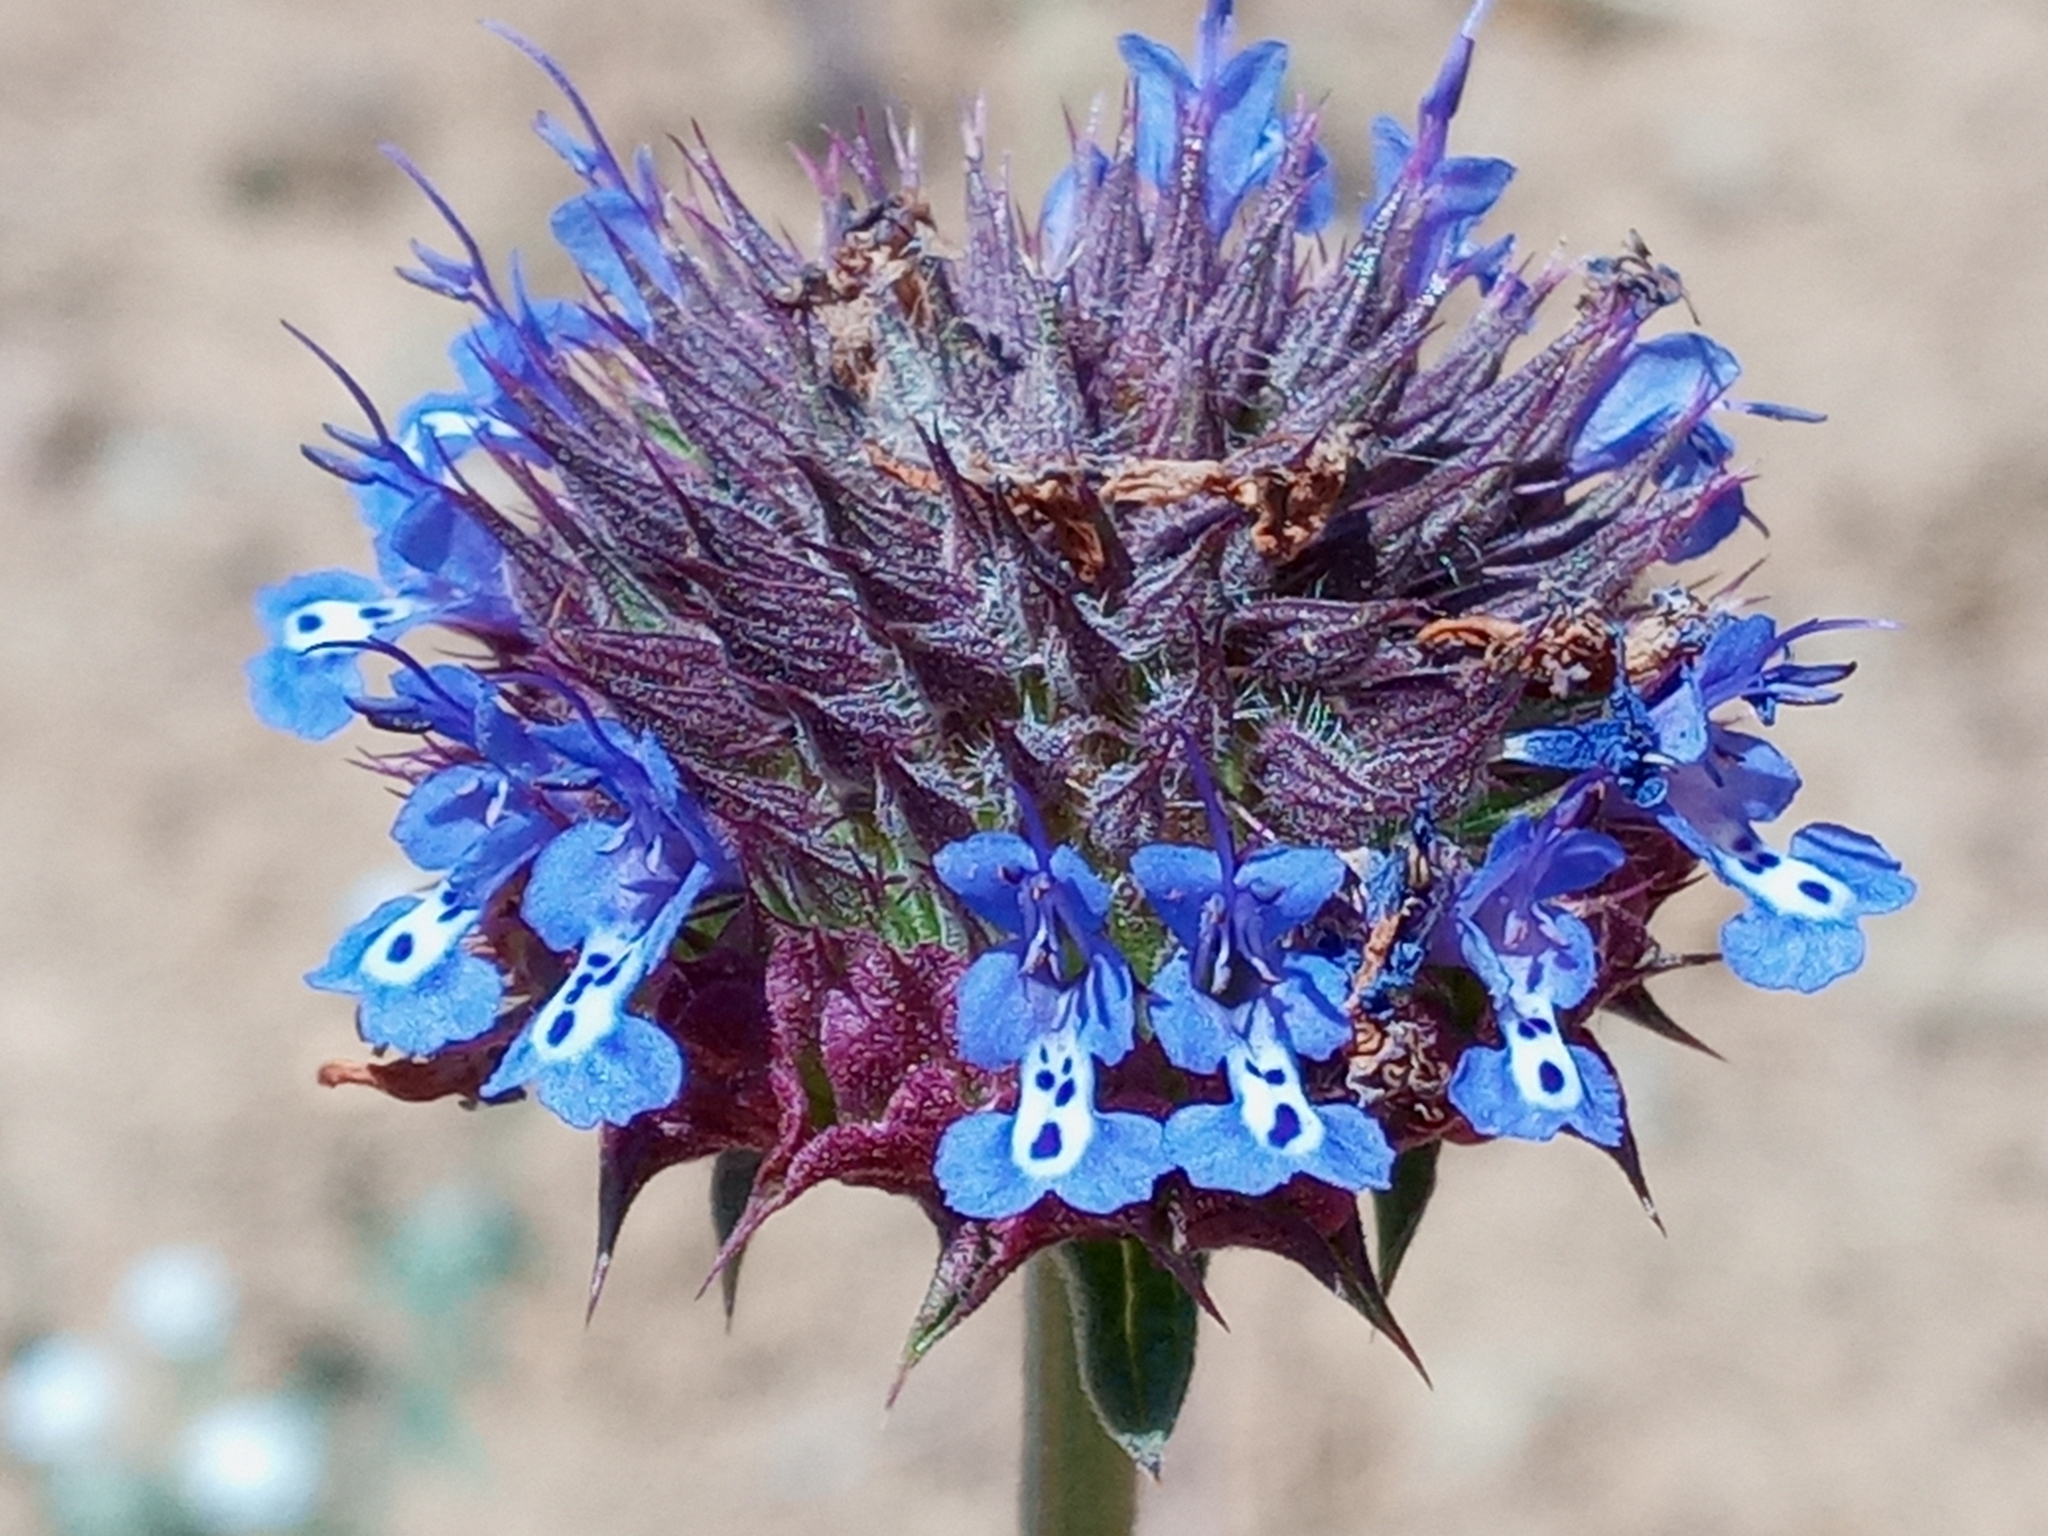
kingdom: Plantae
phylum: Tracheophyta
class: Magnoliopsida
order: Lamiales
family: Lamiaceae
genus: Salvia
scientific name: Salvia columbariae
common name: Chia
